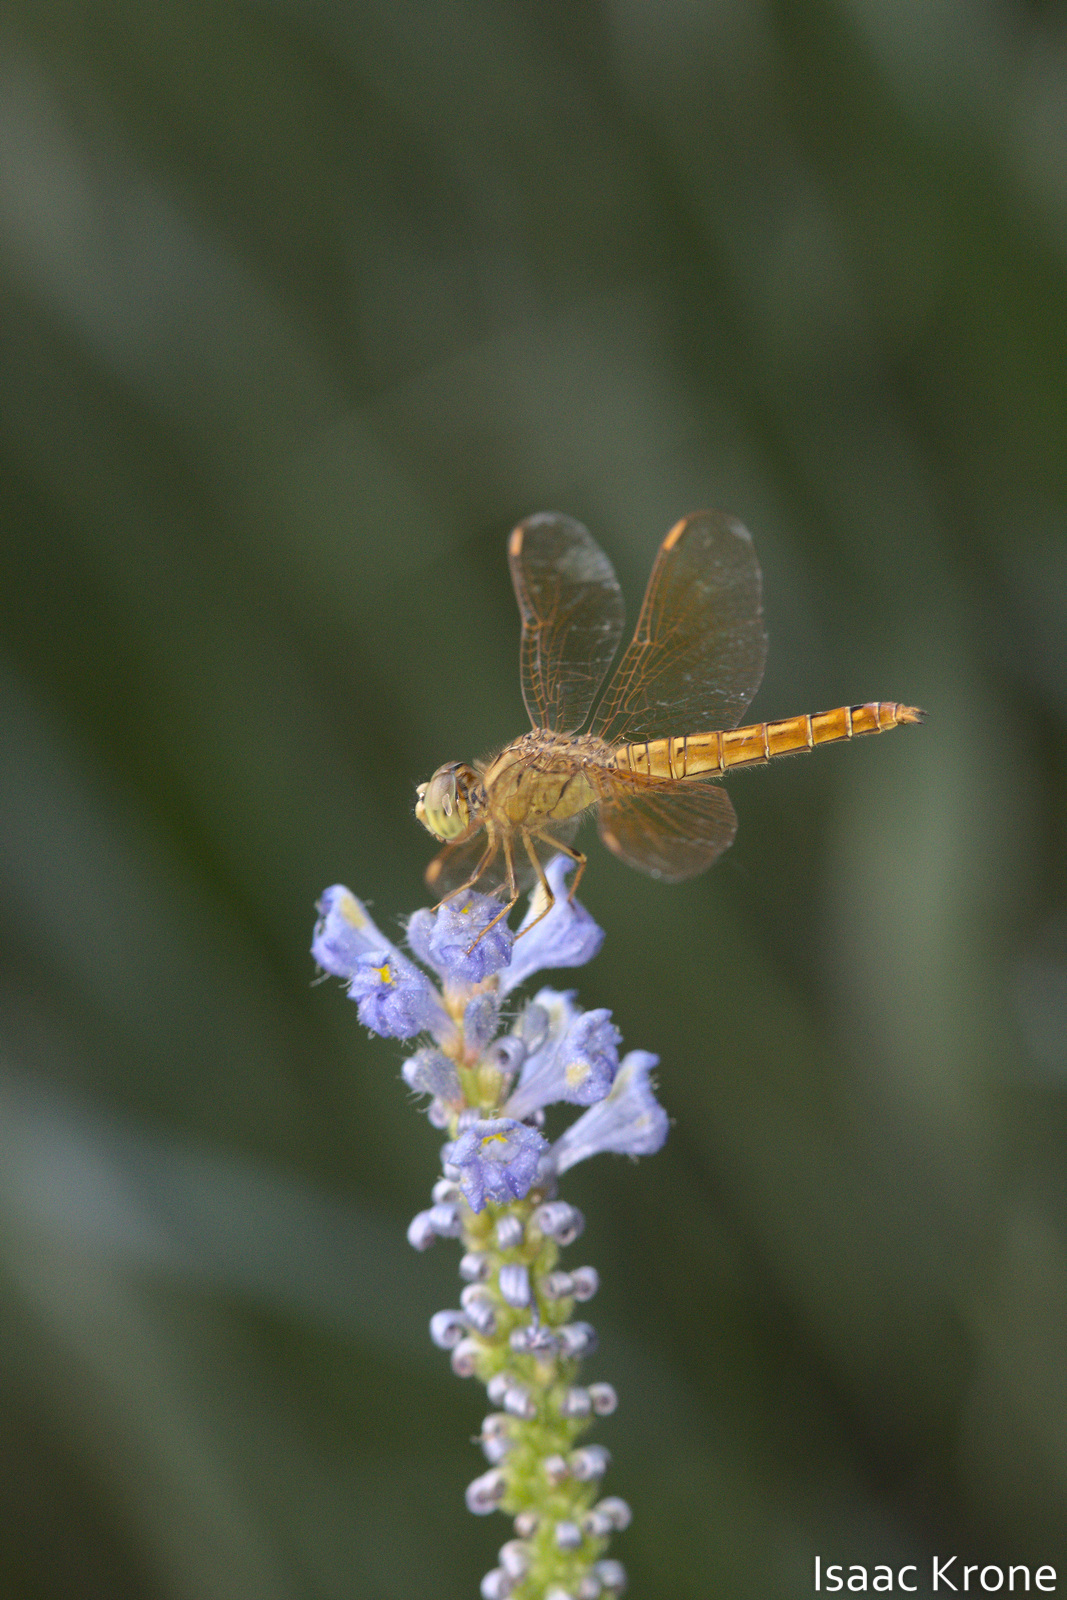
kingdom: Animalia
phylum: Arthropoda
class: Insecta
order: Odonata
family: Libellulidae
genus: Brachythemis
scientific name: Brachythemis contaminata
